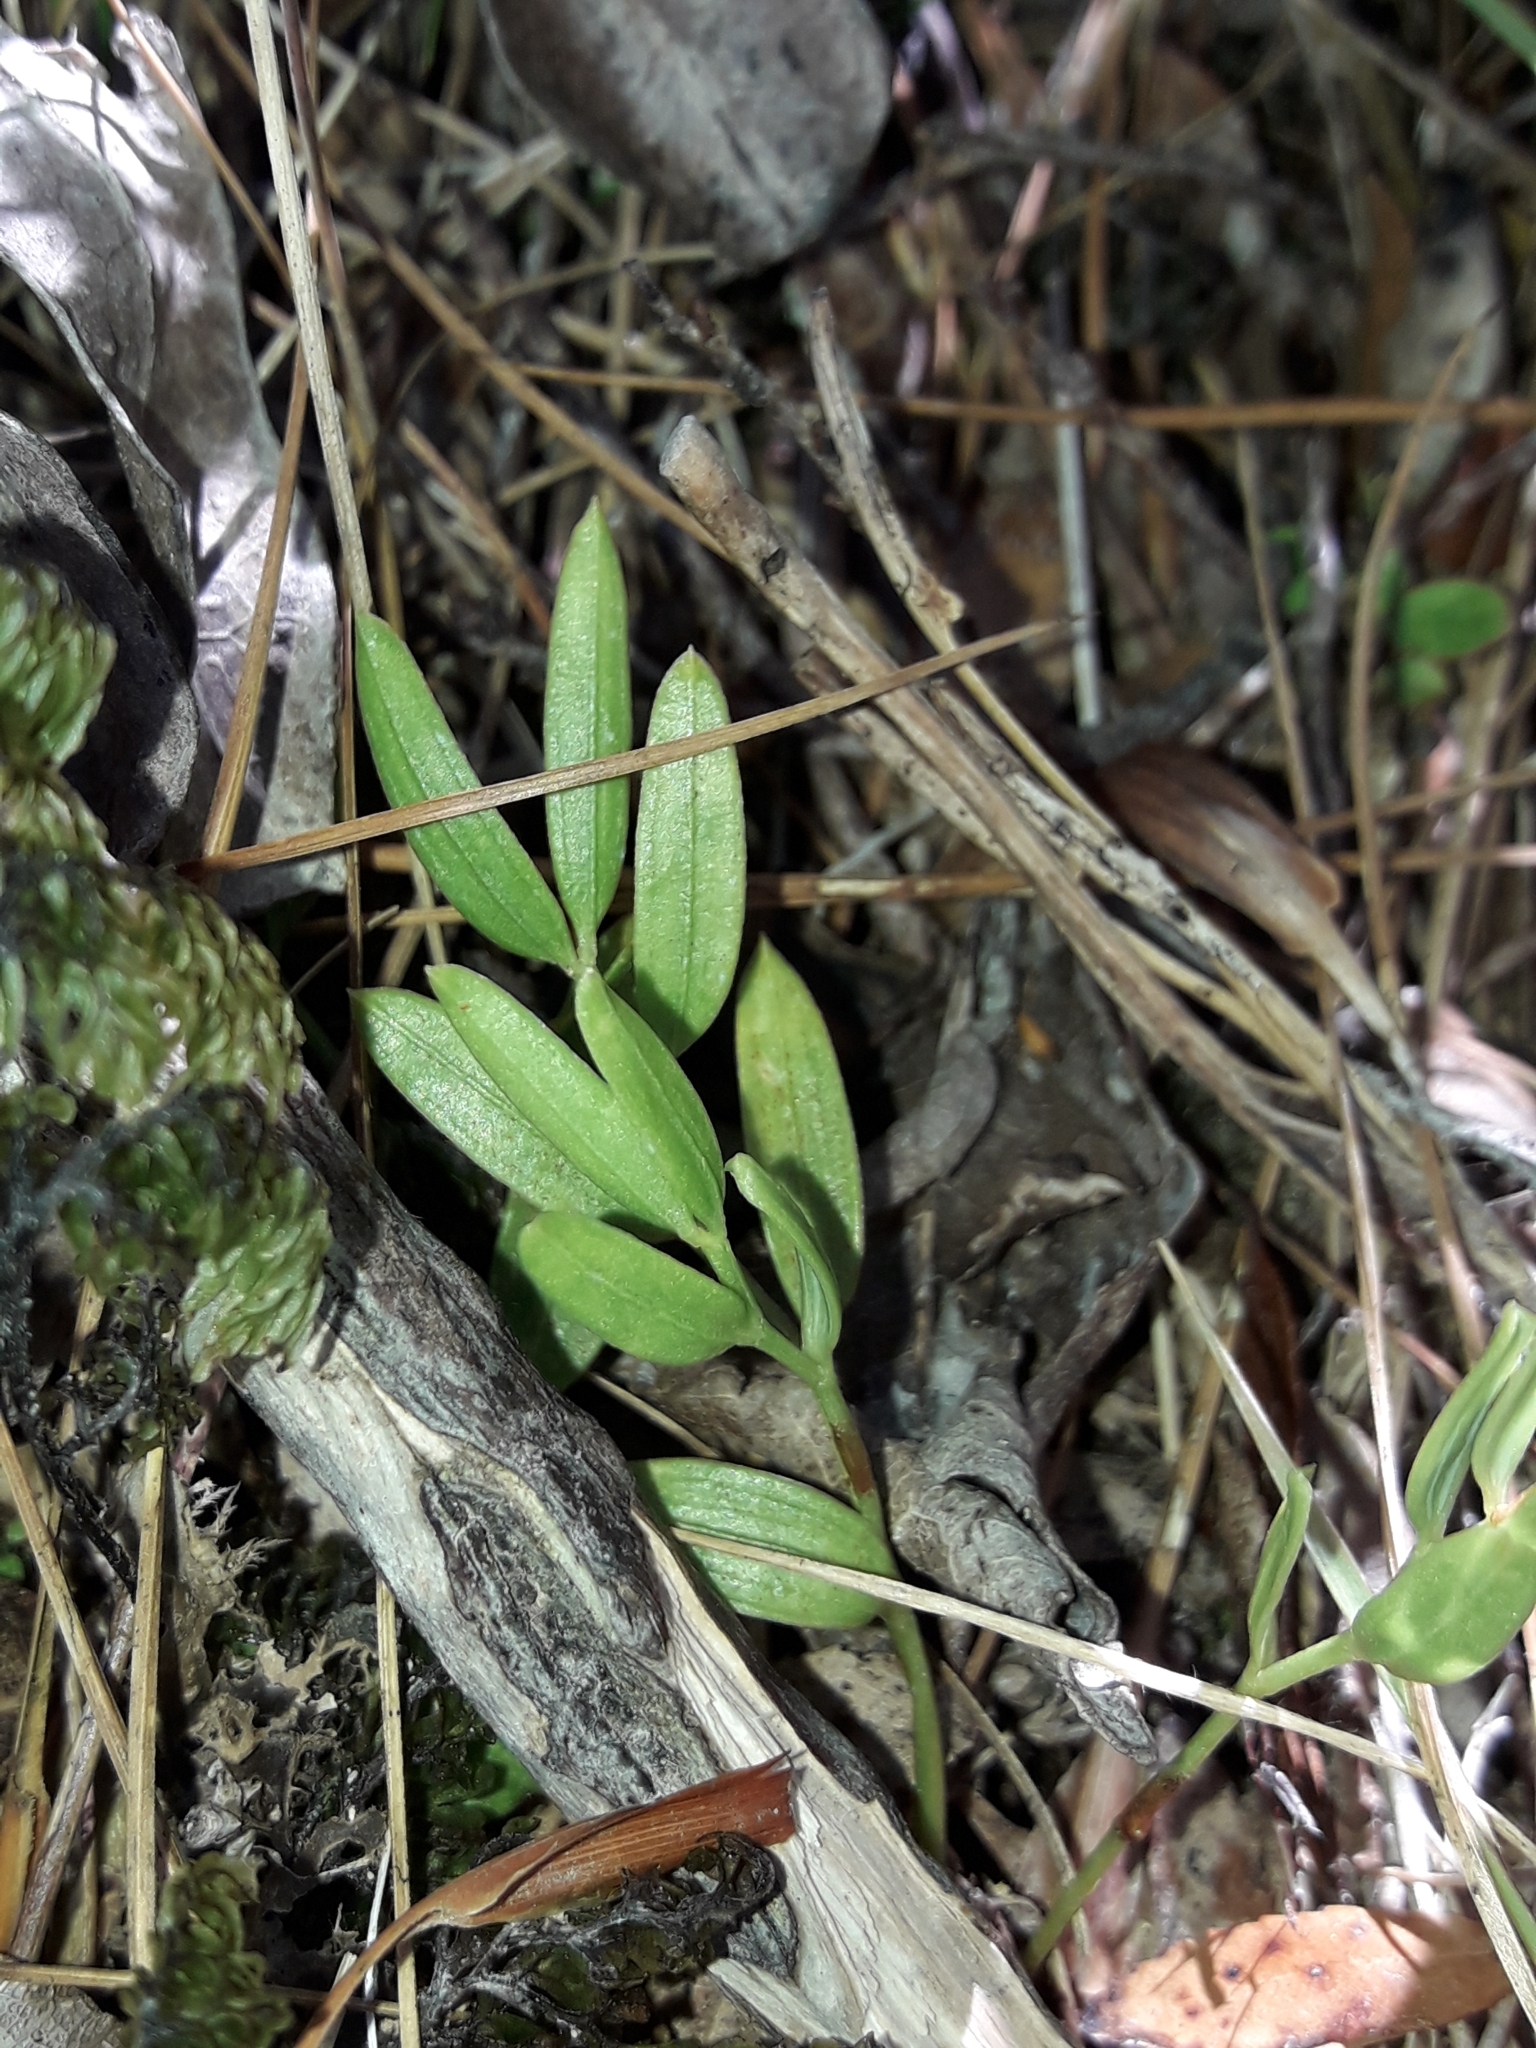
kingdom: Plantae
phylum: Tracheophyta
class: Liliopsida
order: Liliales
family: Alstroemeriaceae
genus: Luzuriaga
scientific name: Luzuriaga parviflora
